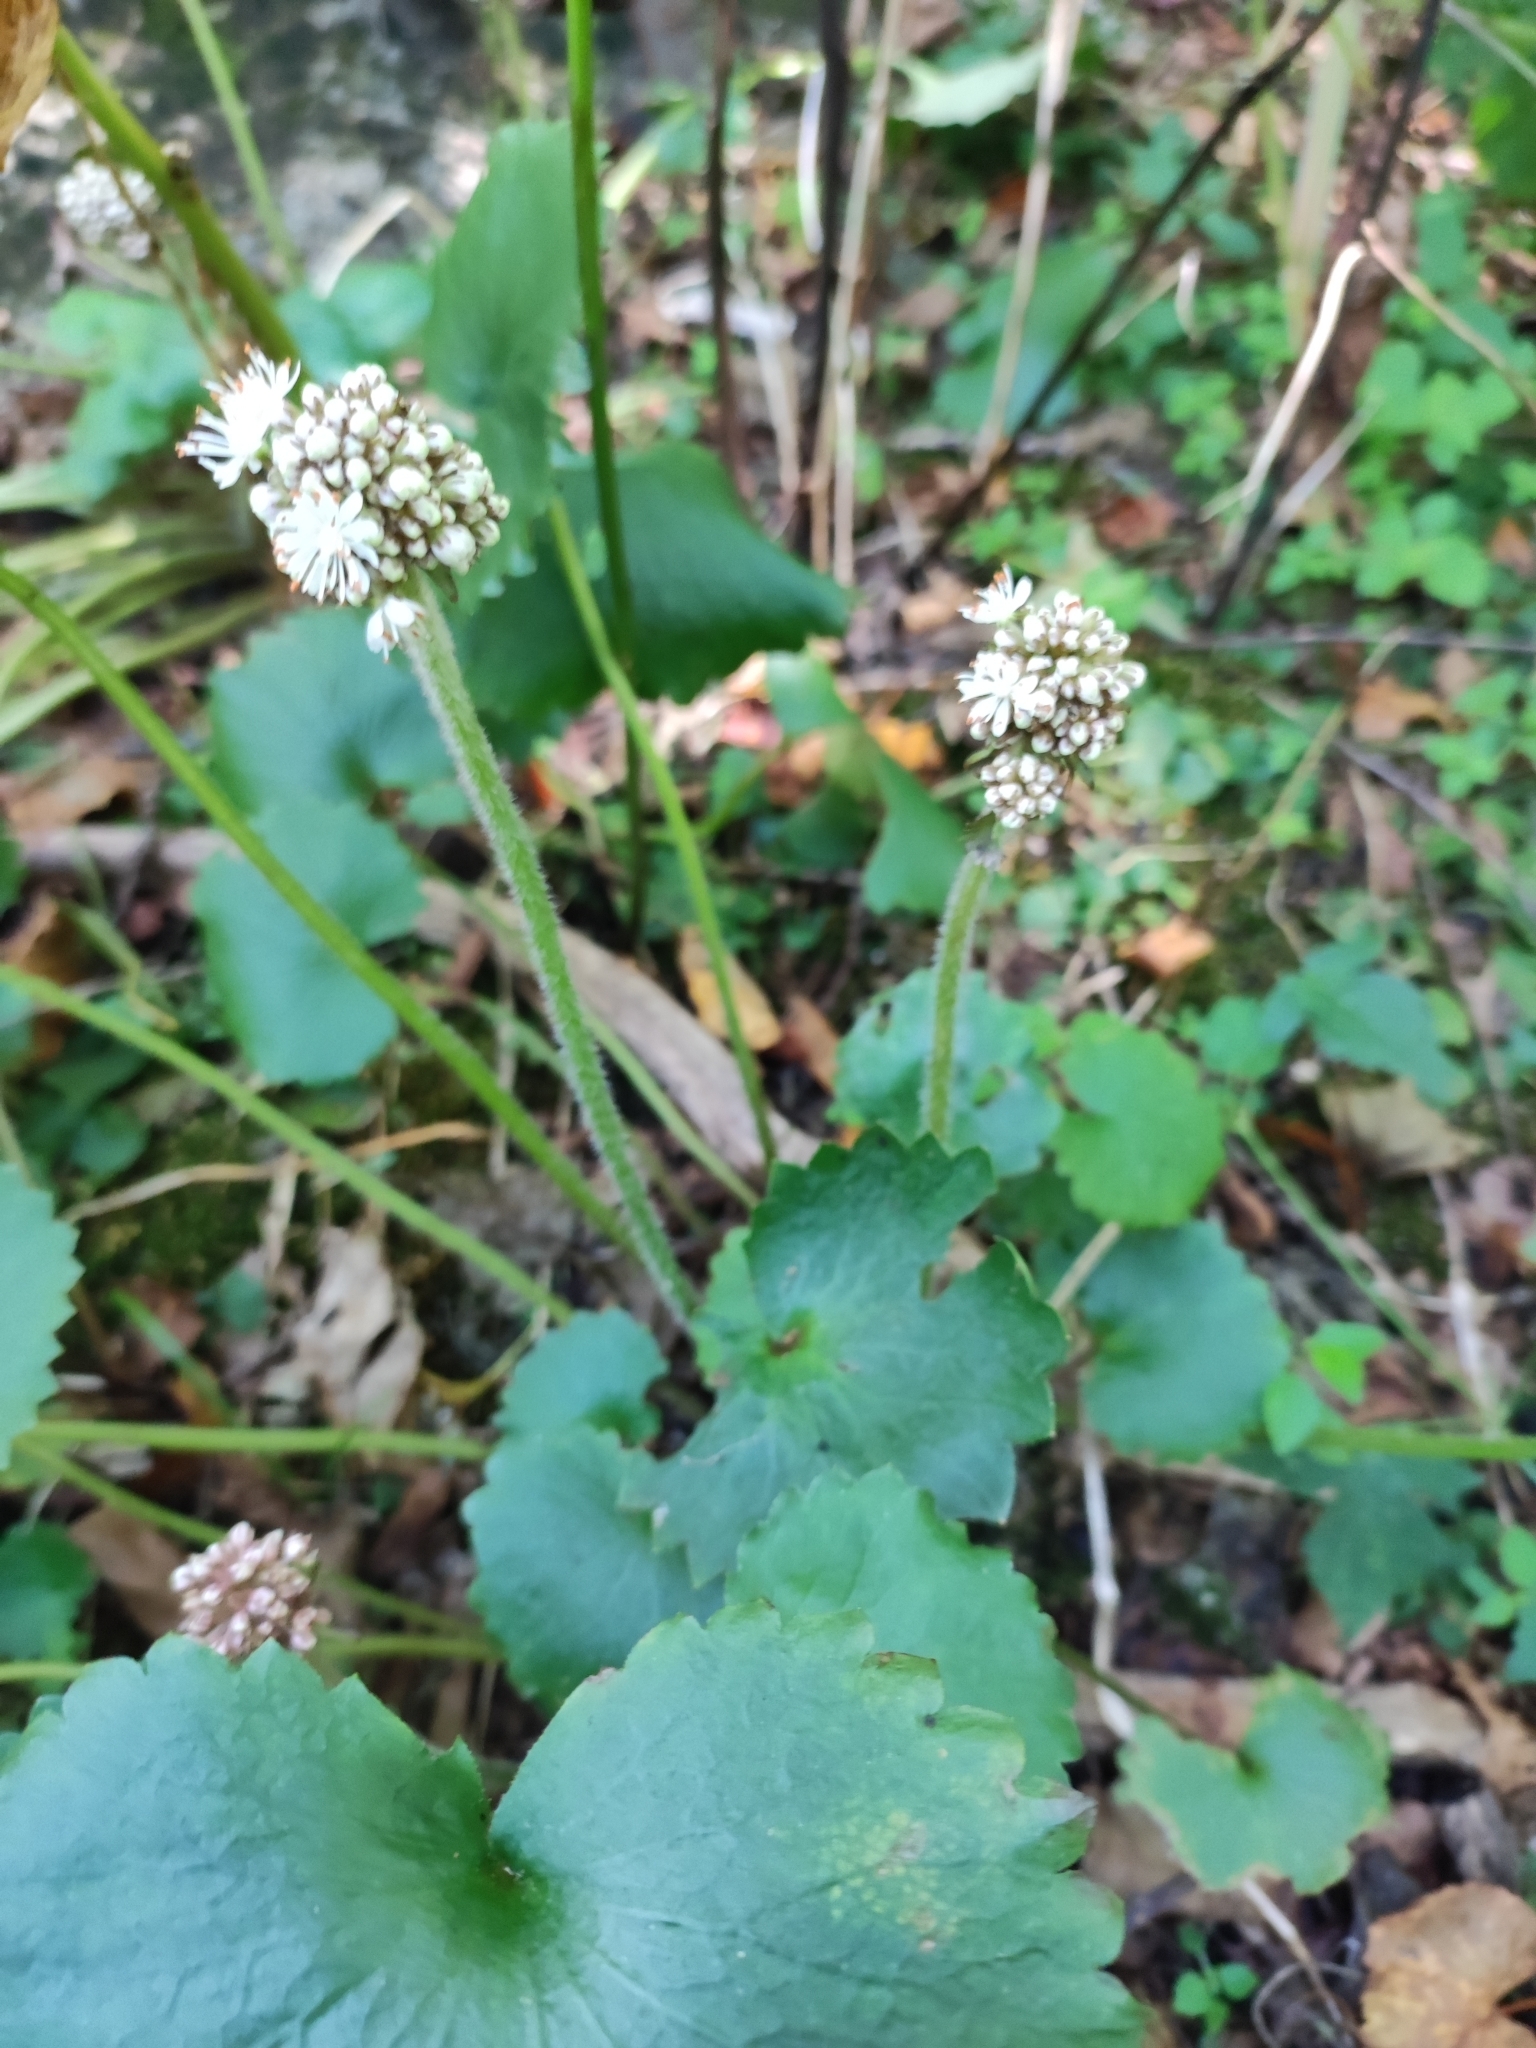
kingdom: Plantae
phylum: Tracheophyta
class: Magnoliopsida
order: Saxifragales
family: Saxifragaceae
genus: Micranthes
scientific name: Micranthes manchuriensis
